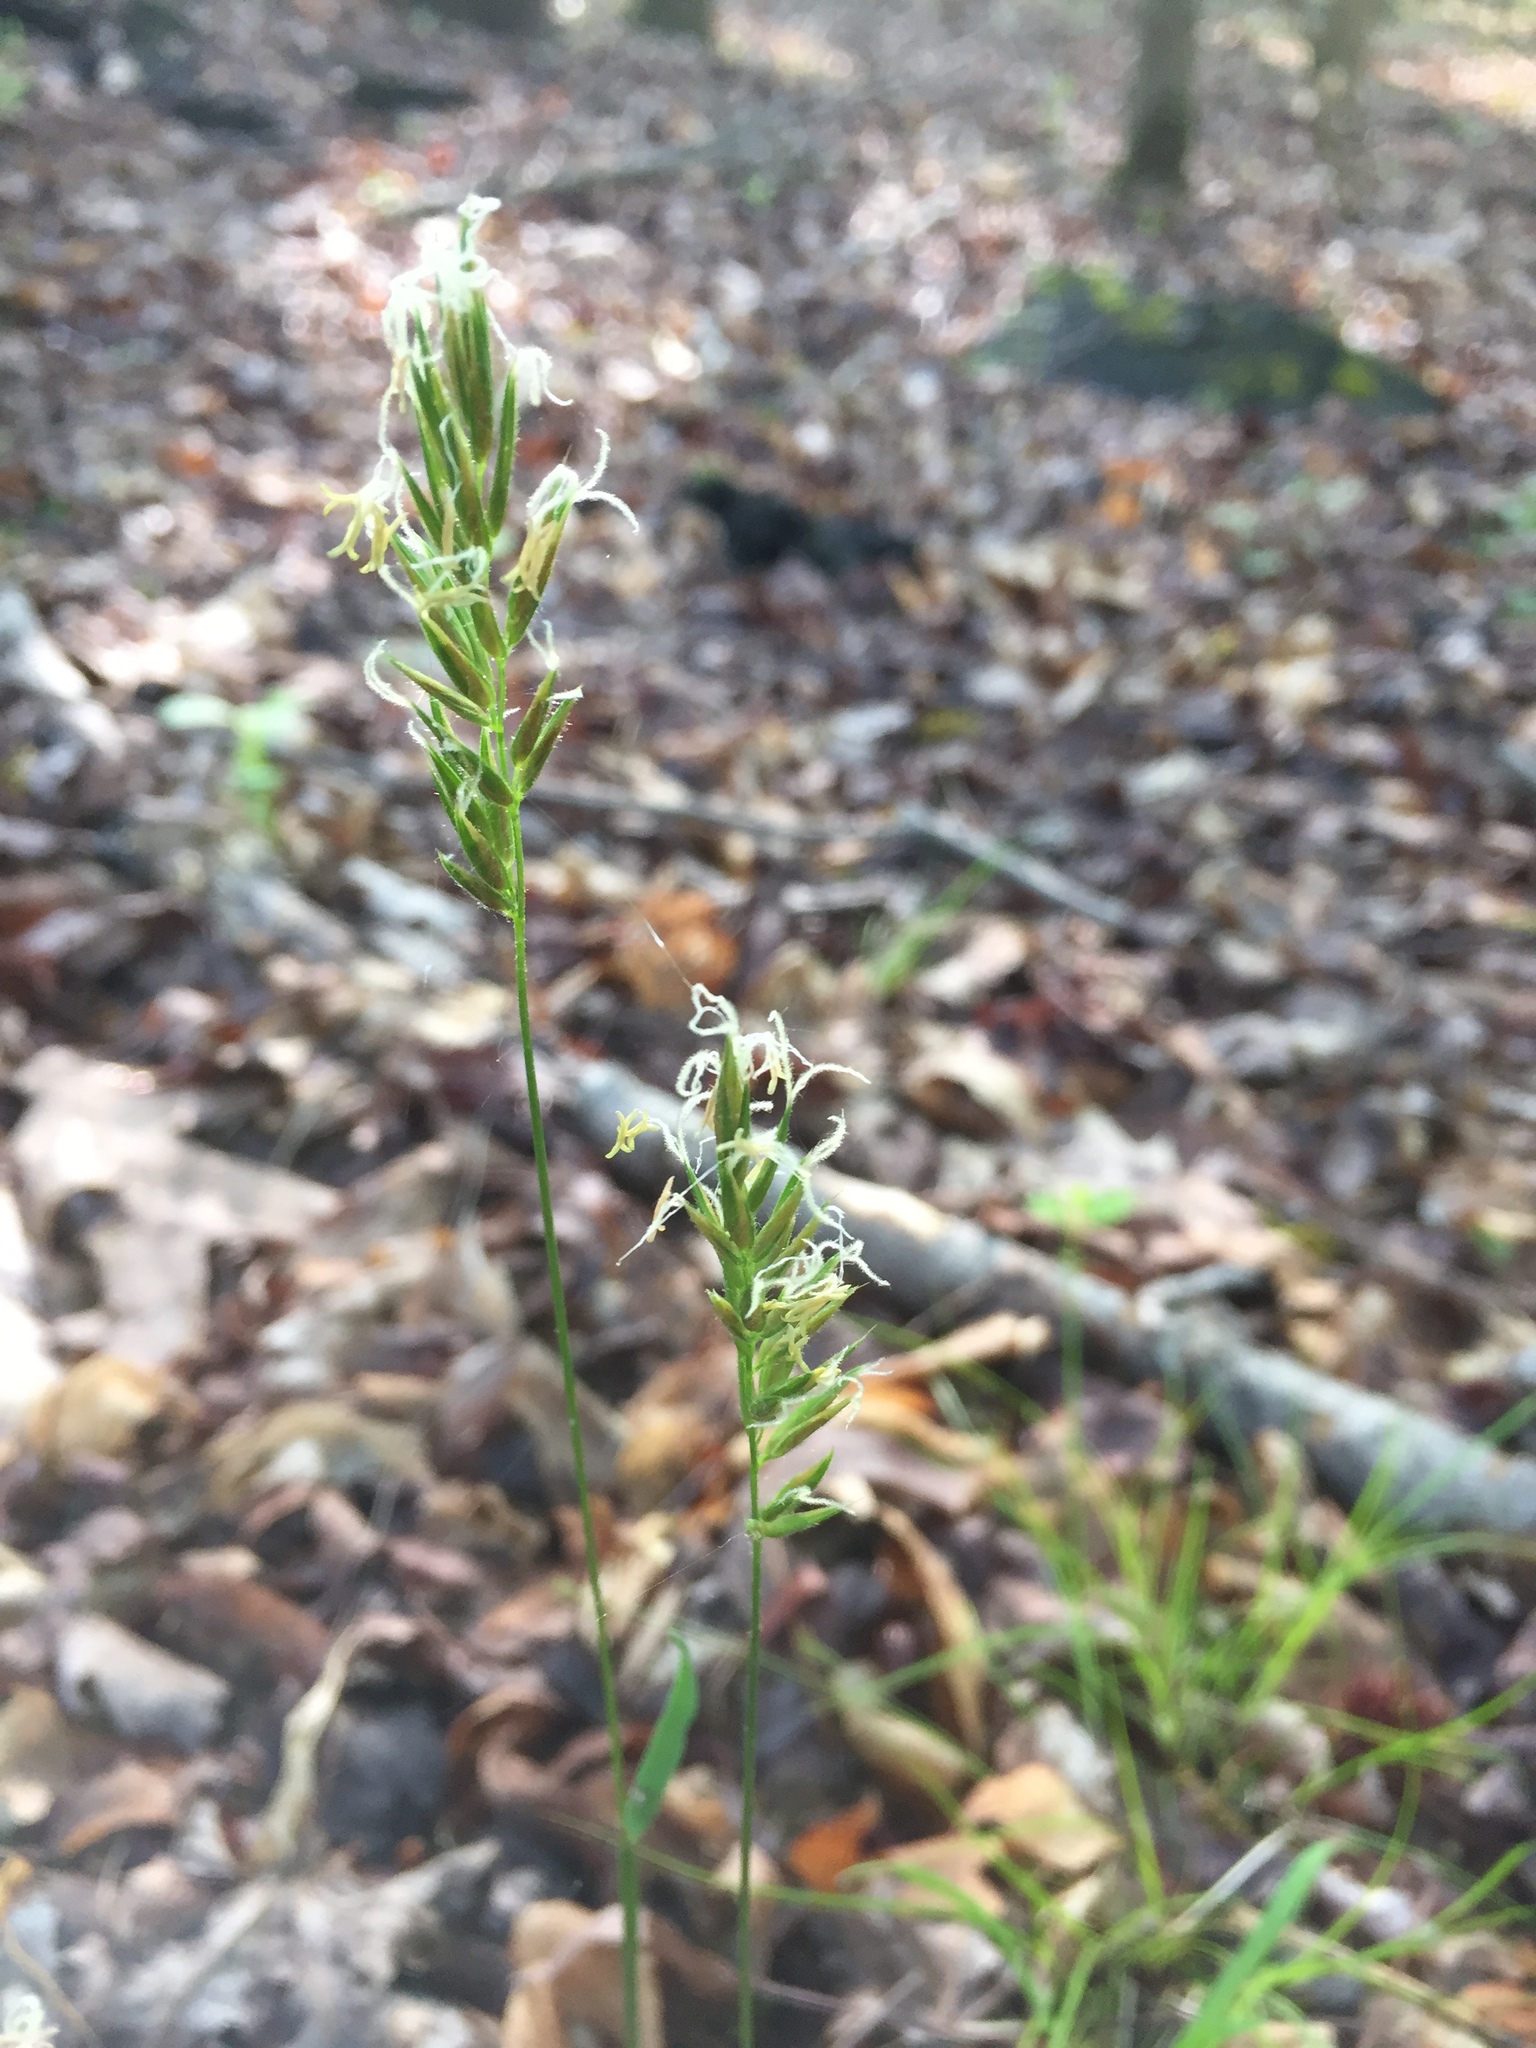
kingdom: Plantae
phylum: Tracheophyta
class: Liliopsida
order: Poales
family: Poaceae
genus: Anthoxanthum
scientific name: Anthoxanthum odoratum
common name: Sweet vernalgrass
